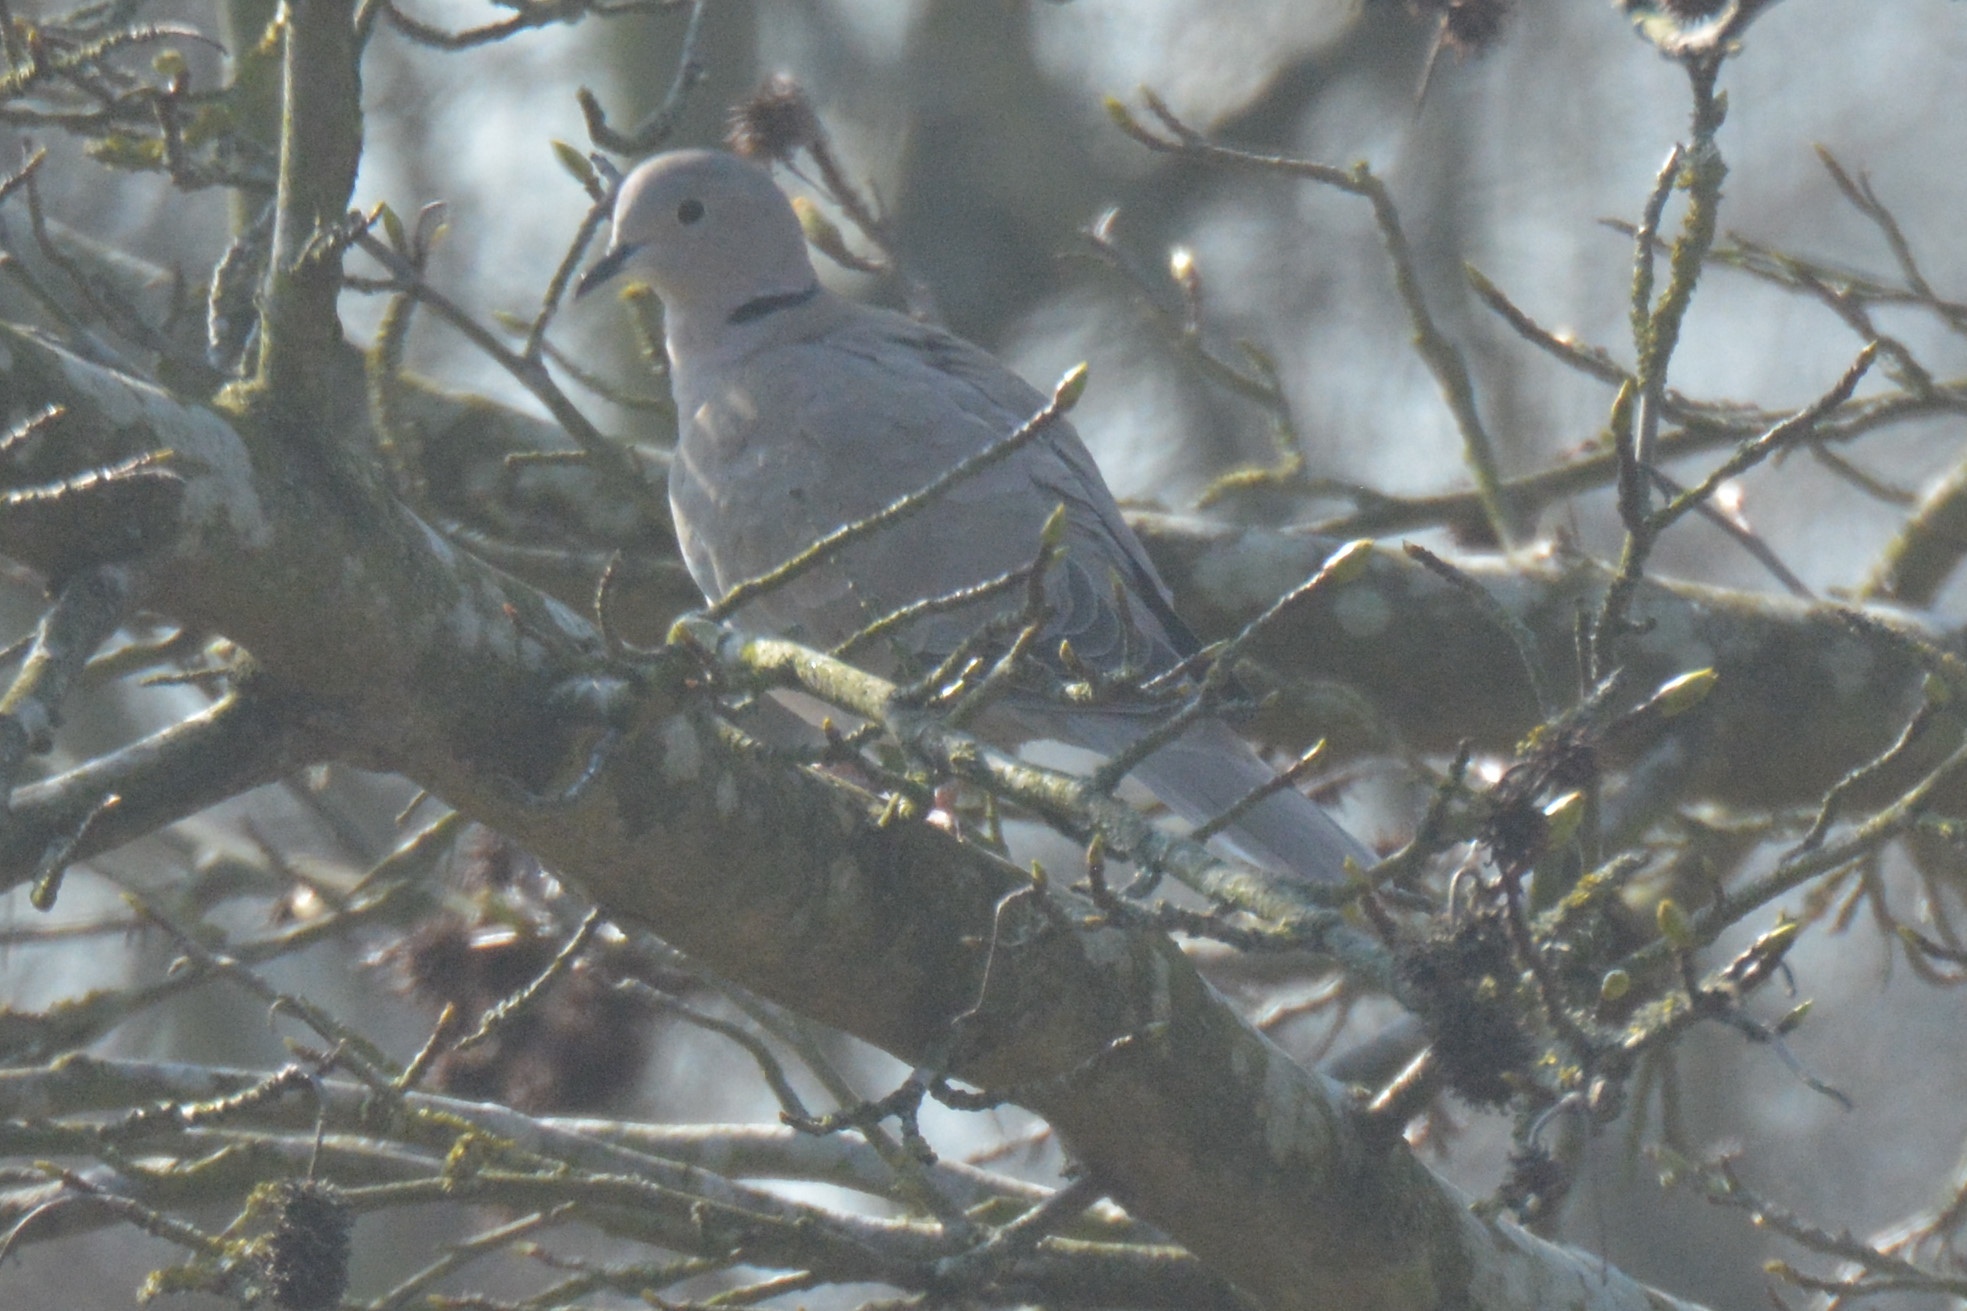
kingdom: Animalia
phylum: Chordata
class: Aves
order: Columbiformes
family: Columbidae
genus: Streptopelia
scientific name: Streptopelia decaocto
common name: Eurasian collared dove
